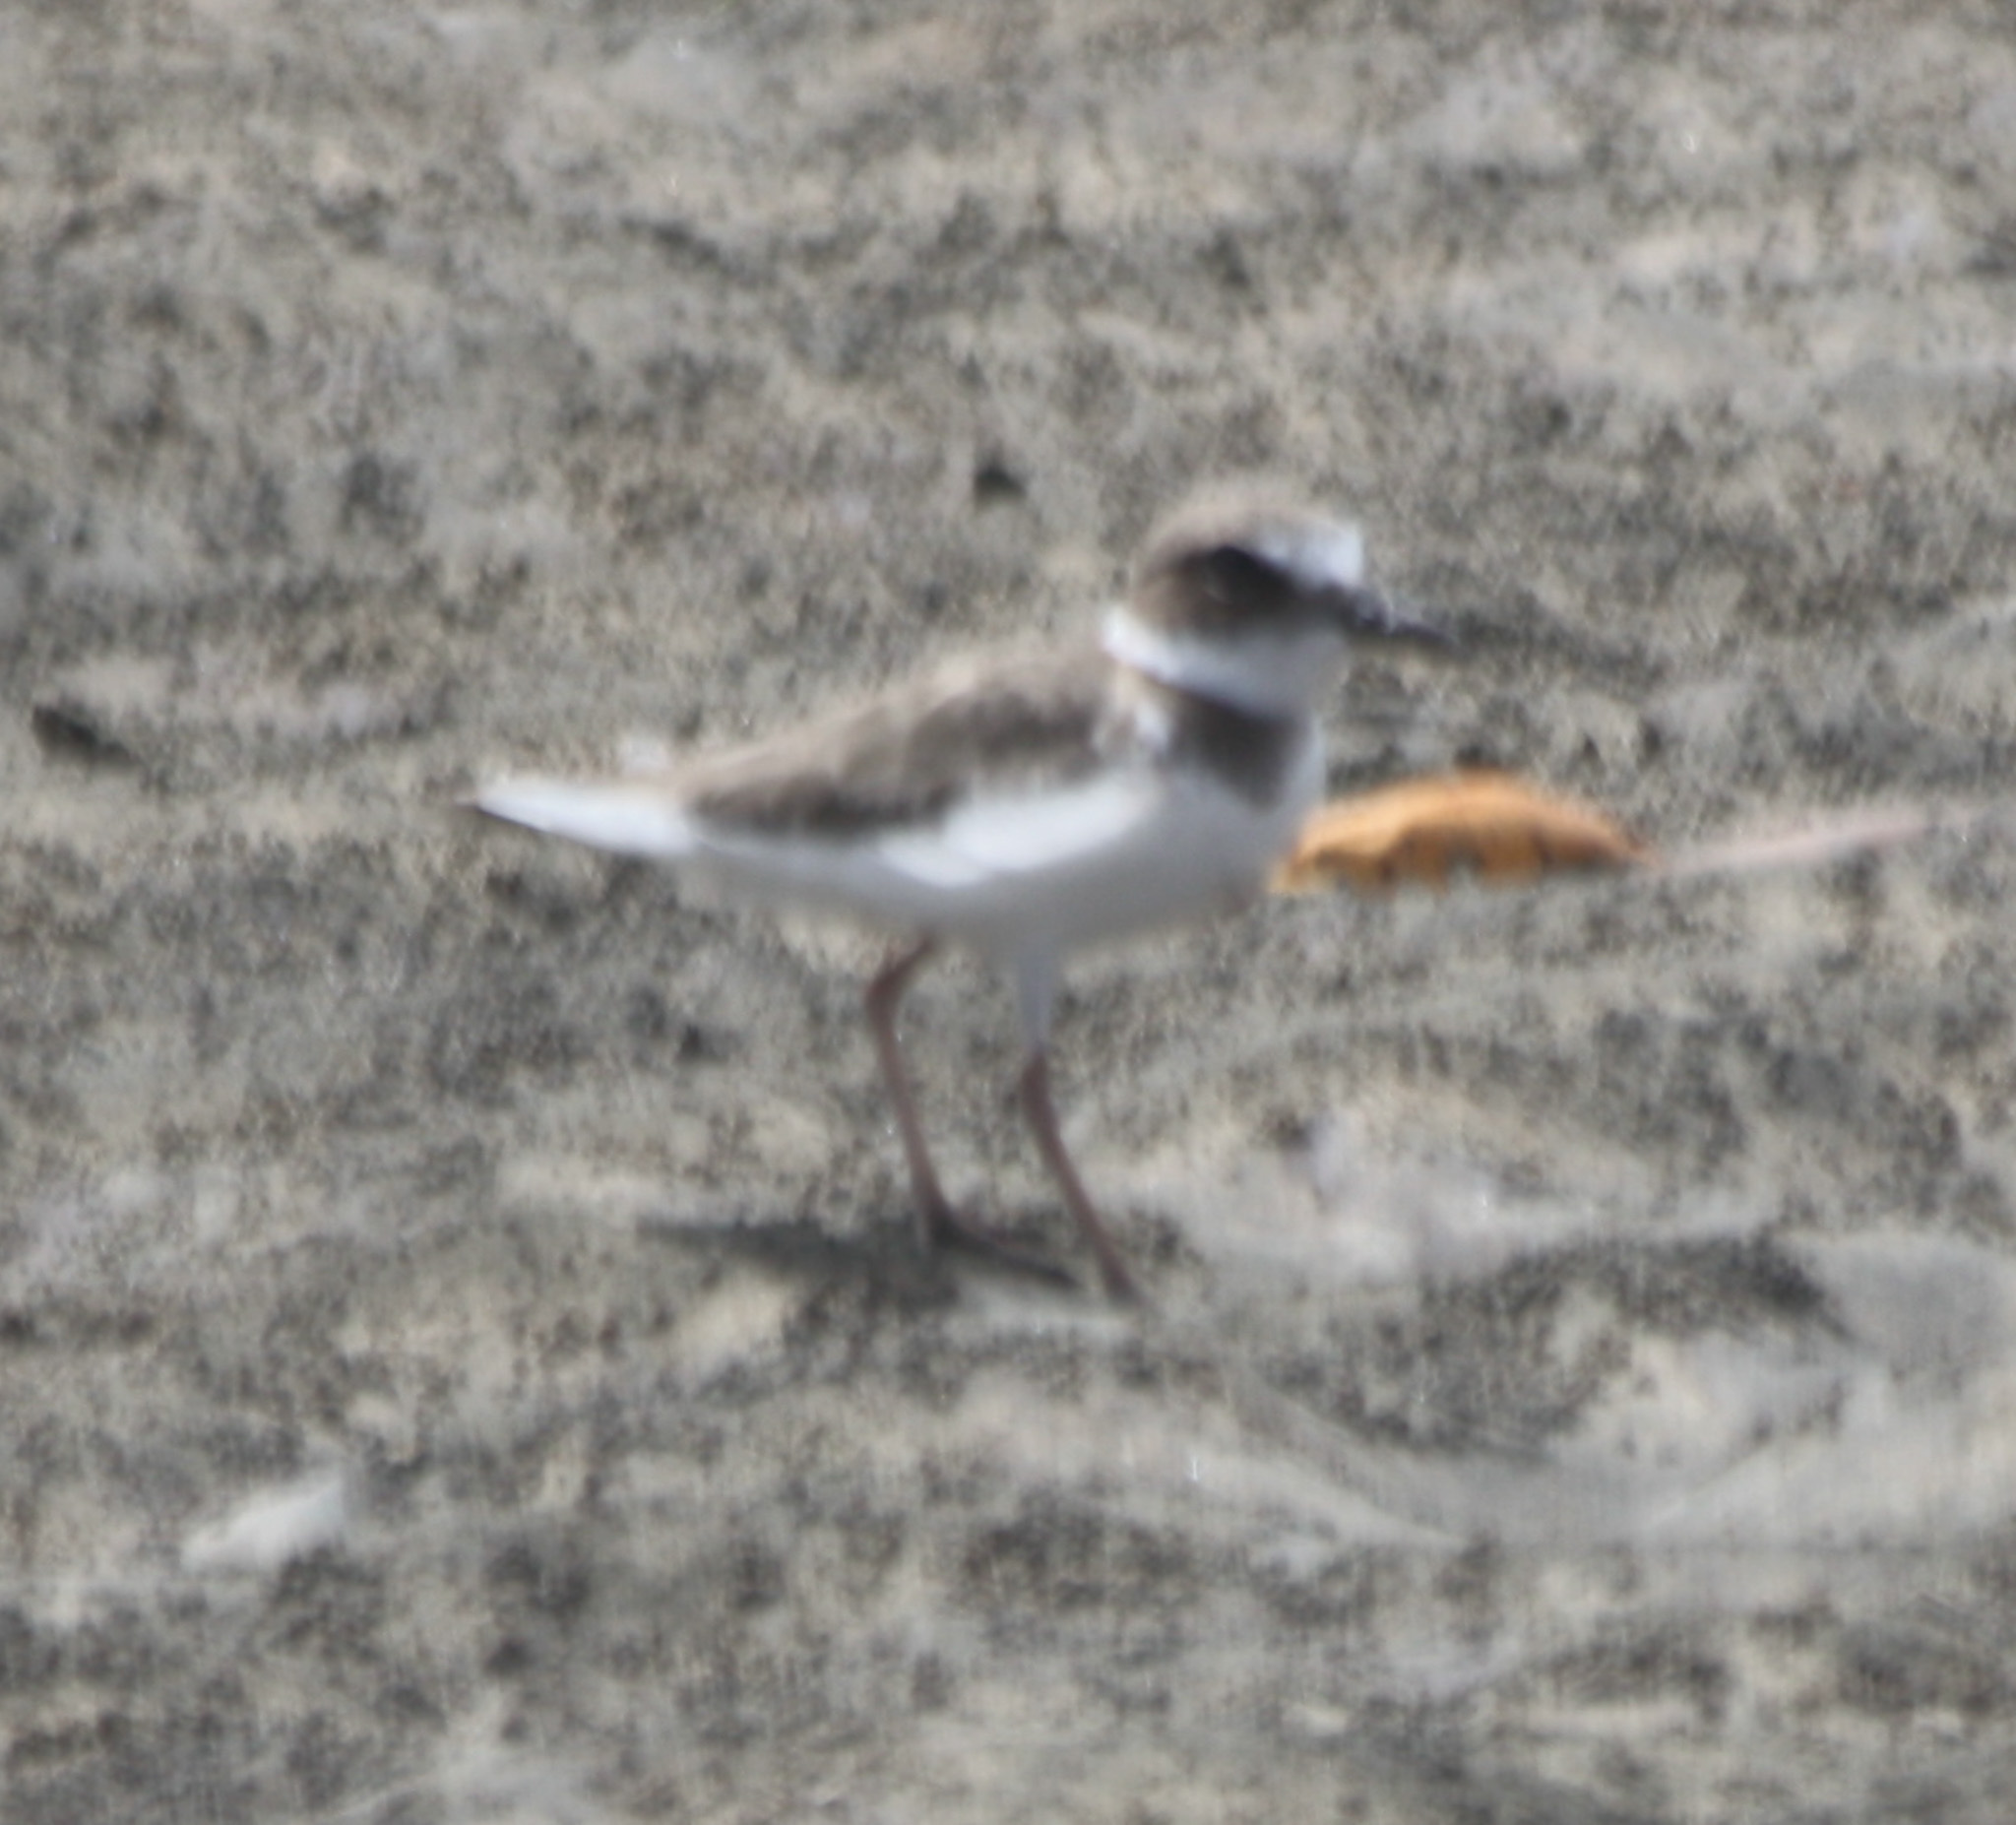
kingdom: Animalia
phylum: Chordata
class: Aves
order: Charadriiformes
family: Charadriidae
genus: Anarhynchus
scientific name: Anarhynchus
